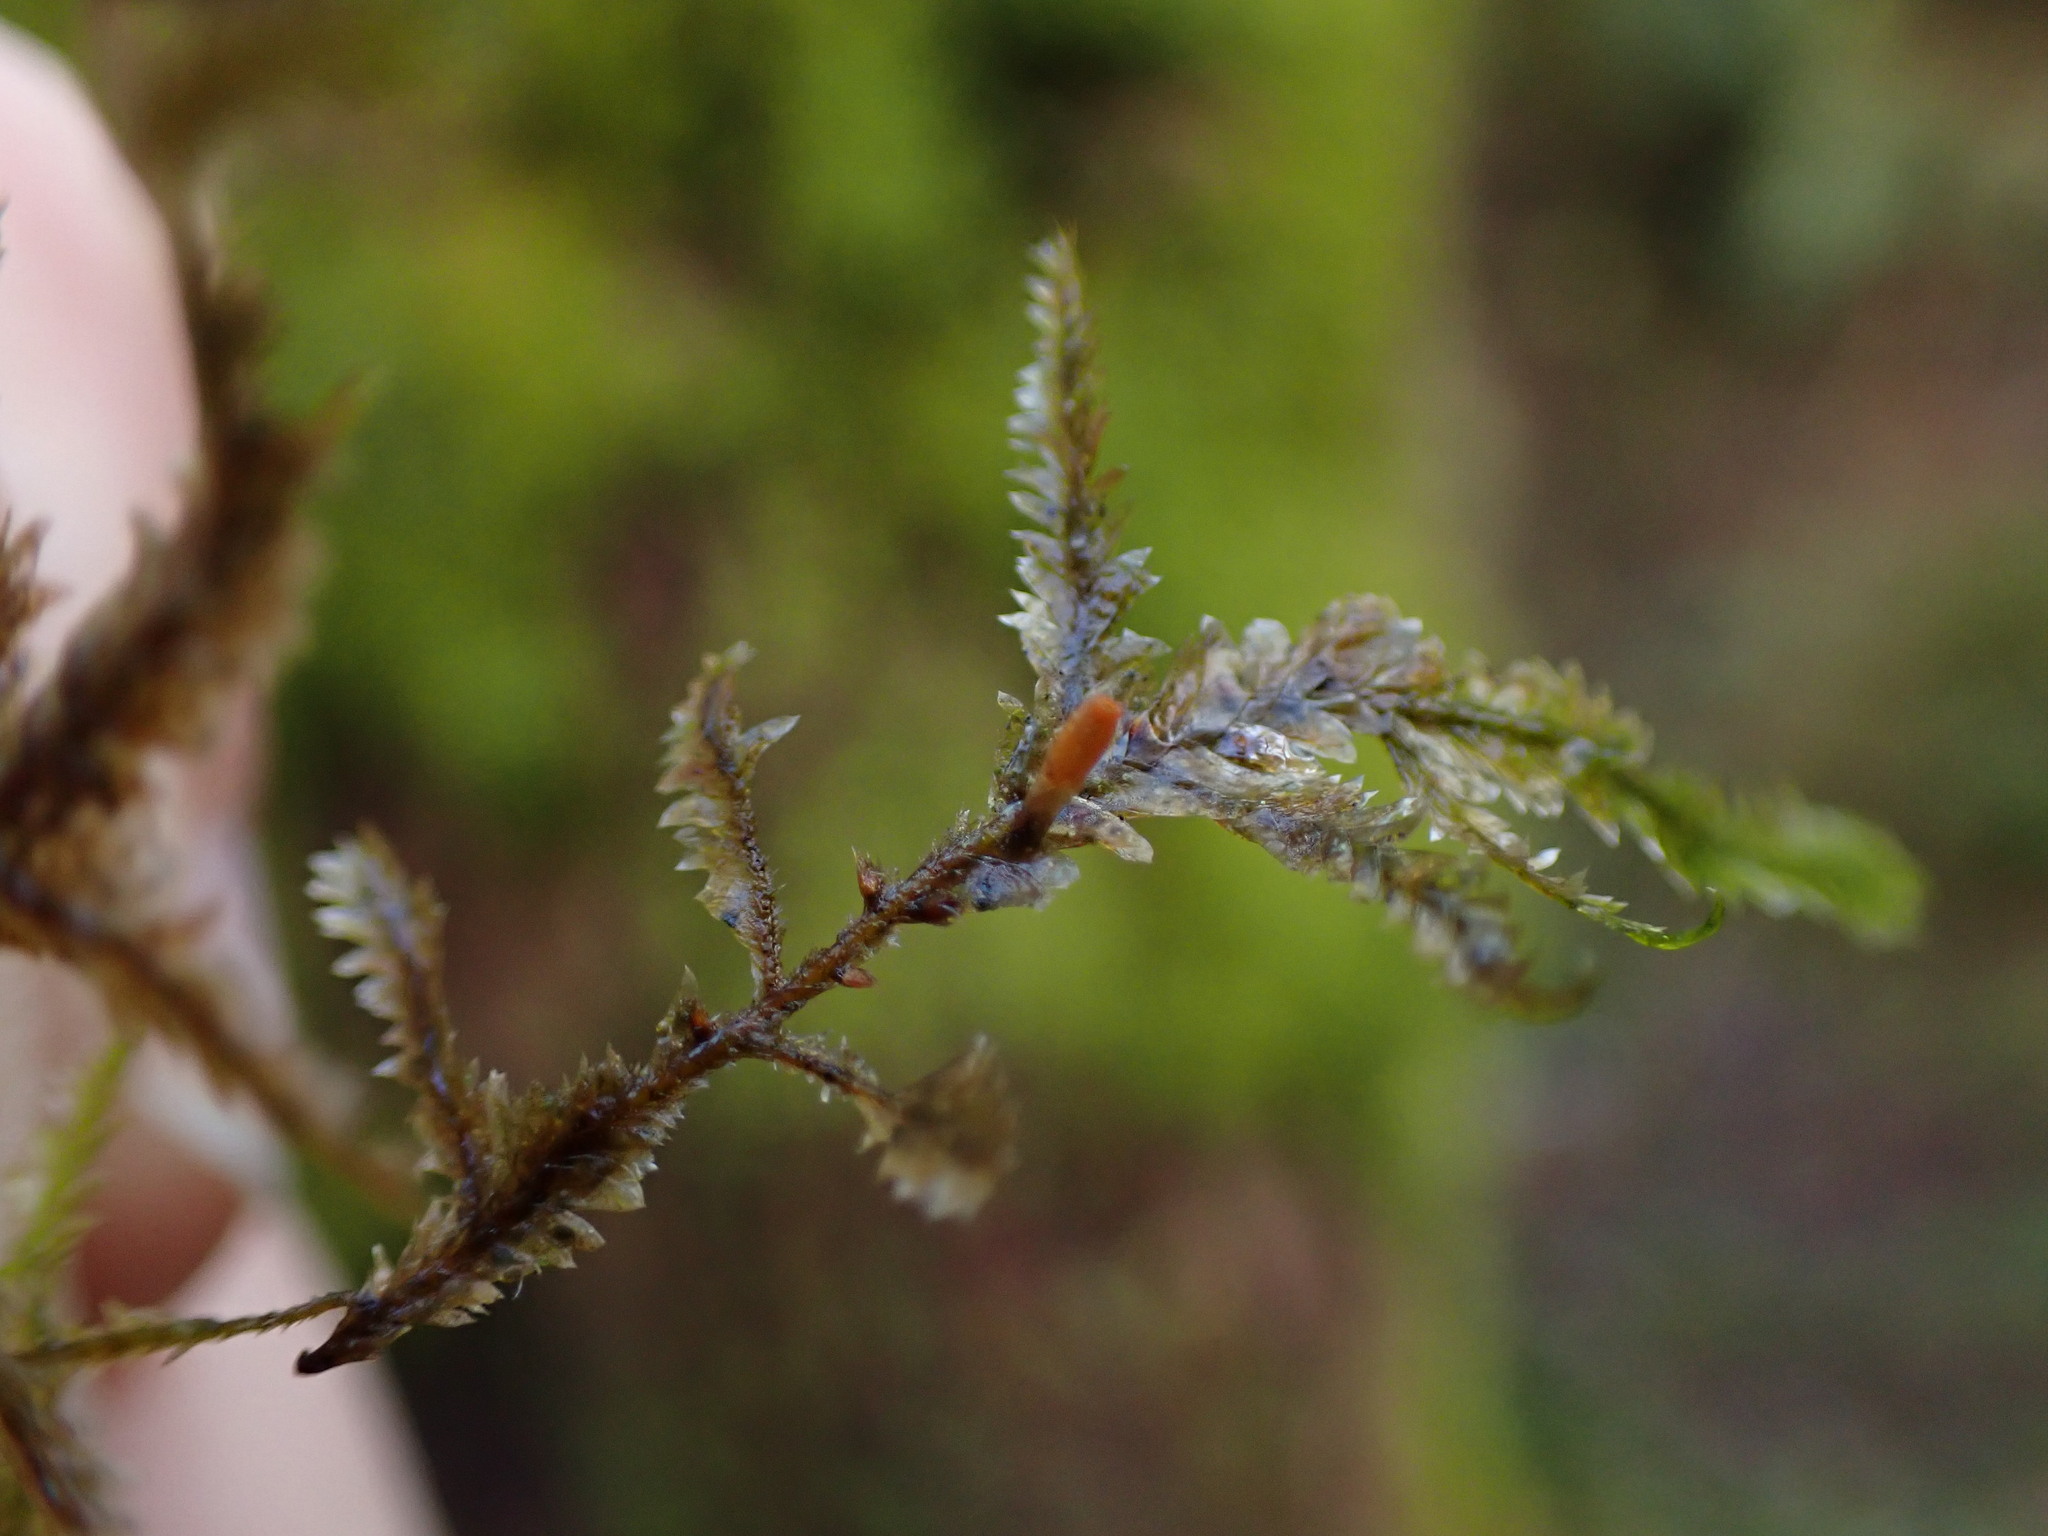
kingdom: Plantae
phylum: Bryophyta
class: Bryopsida
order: Hypnales
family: Neckeraceae
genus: Neckera
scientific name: Neckera pennata
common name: Feathery neckera
